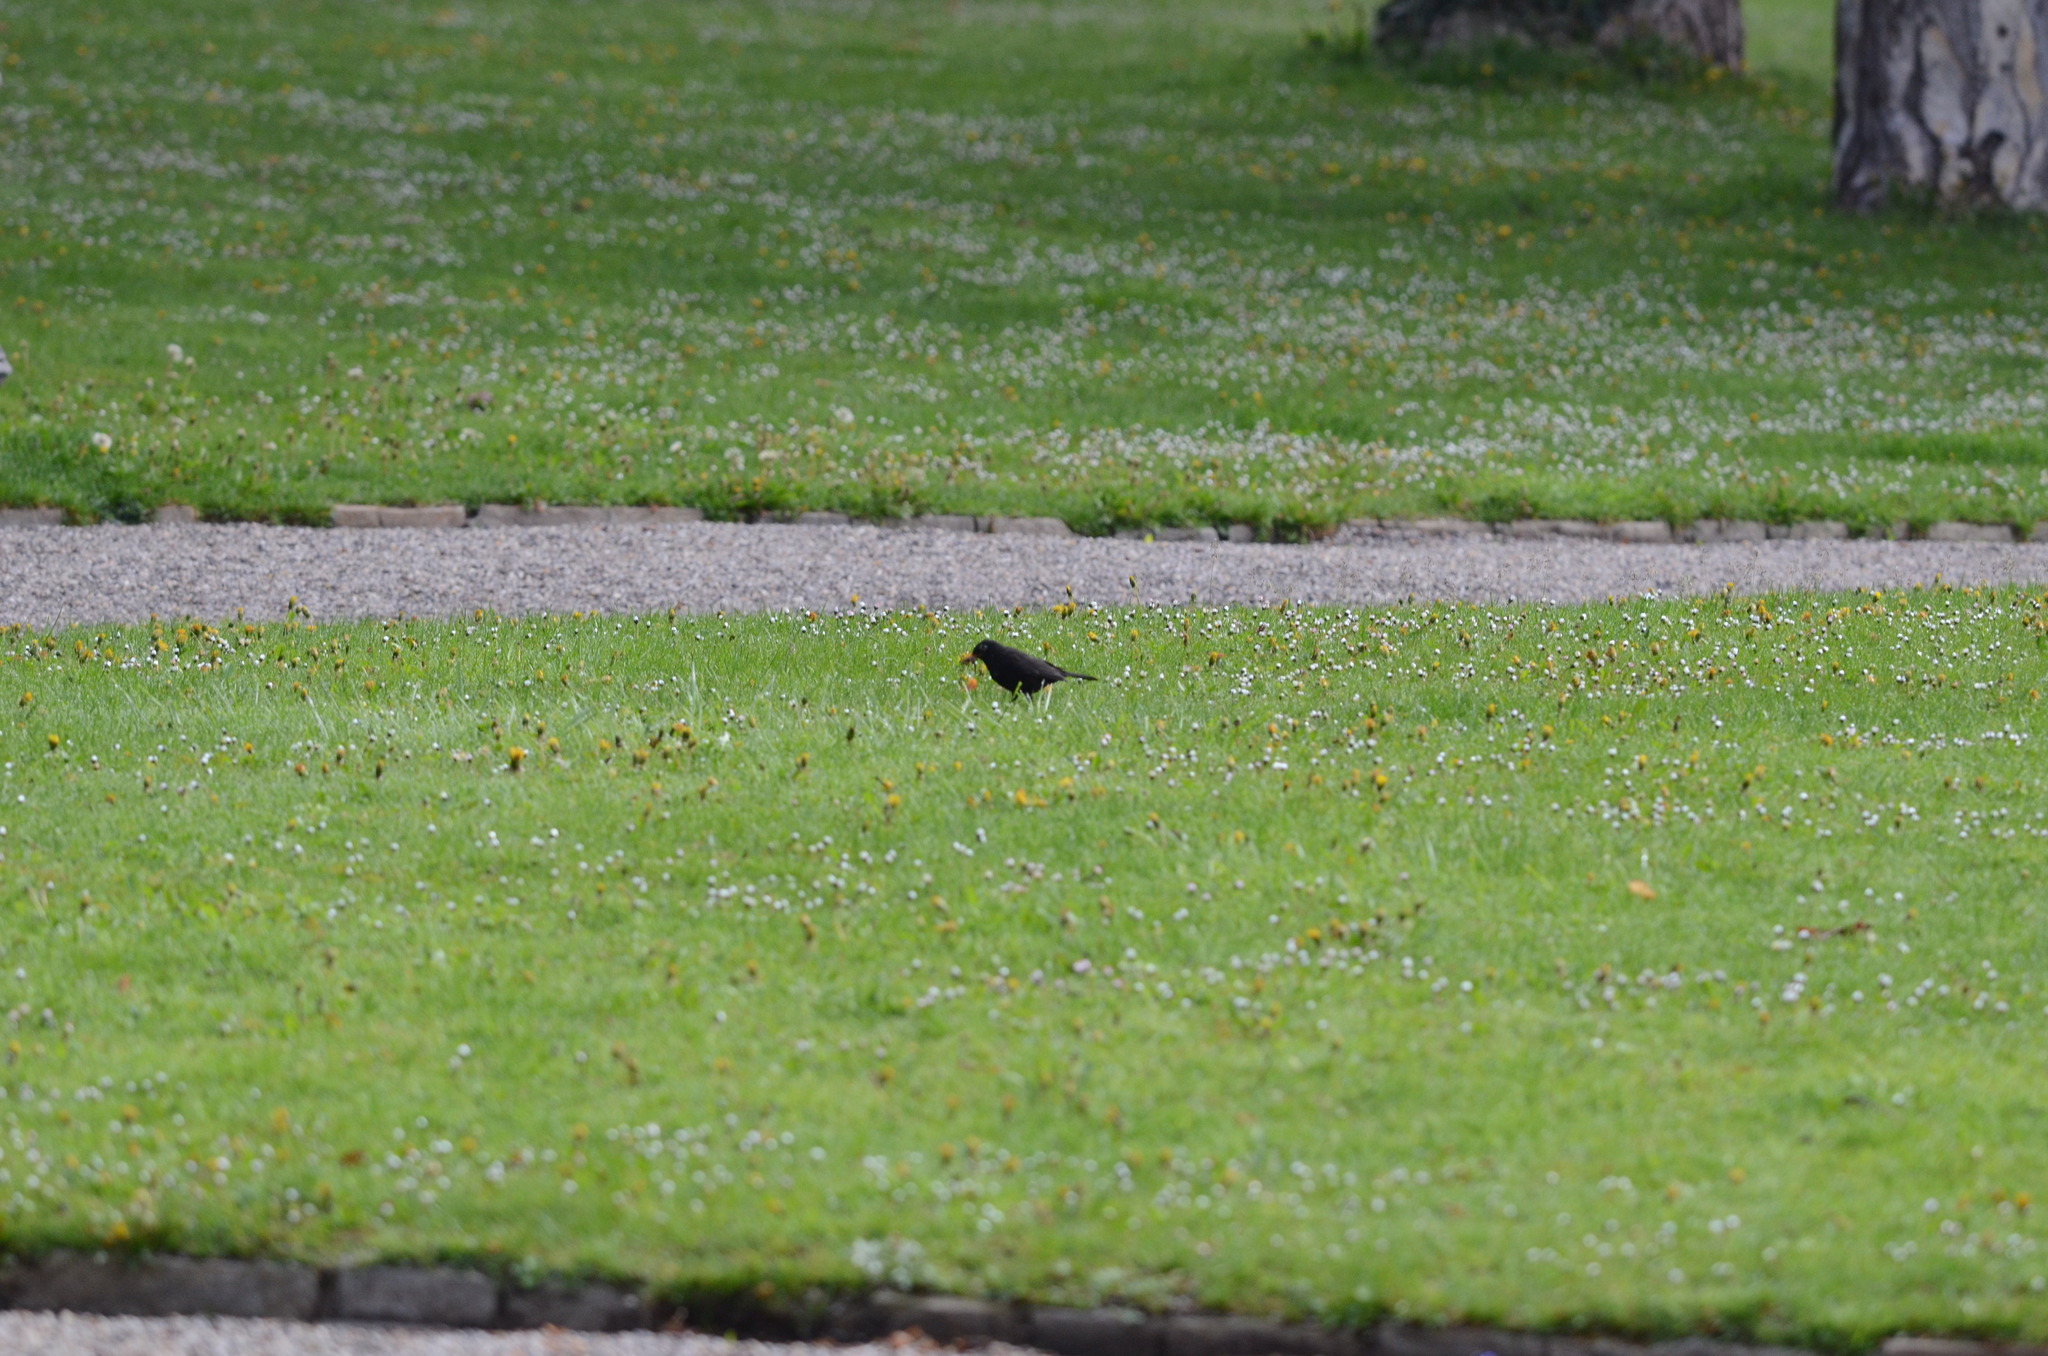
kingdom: Animalia
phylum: Chordata
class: Aves
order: Passeriformes
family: Turdidae
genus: Turdus
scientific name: Turdus merula
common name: Common blackbird
